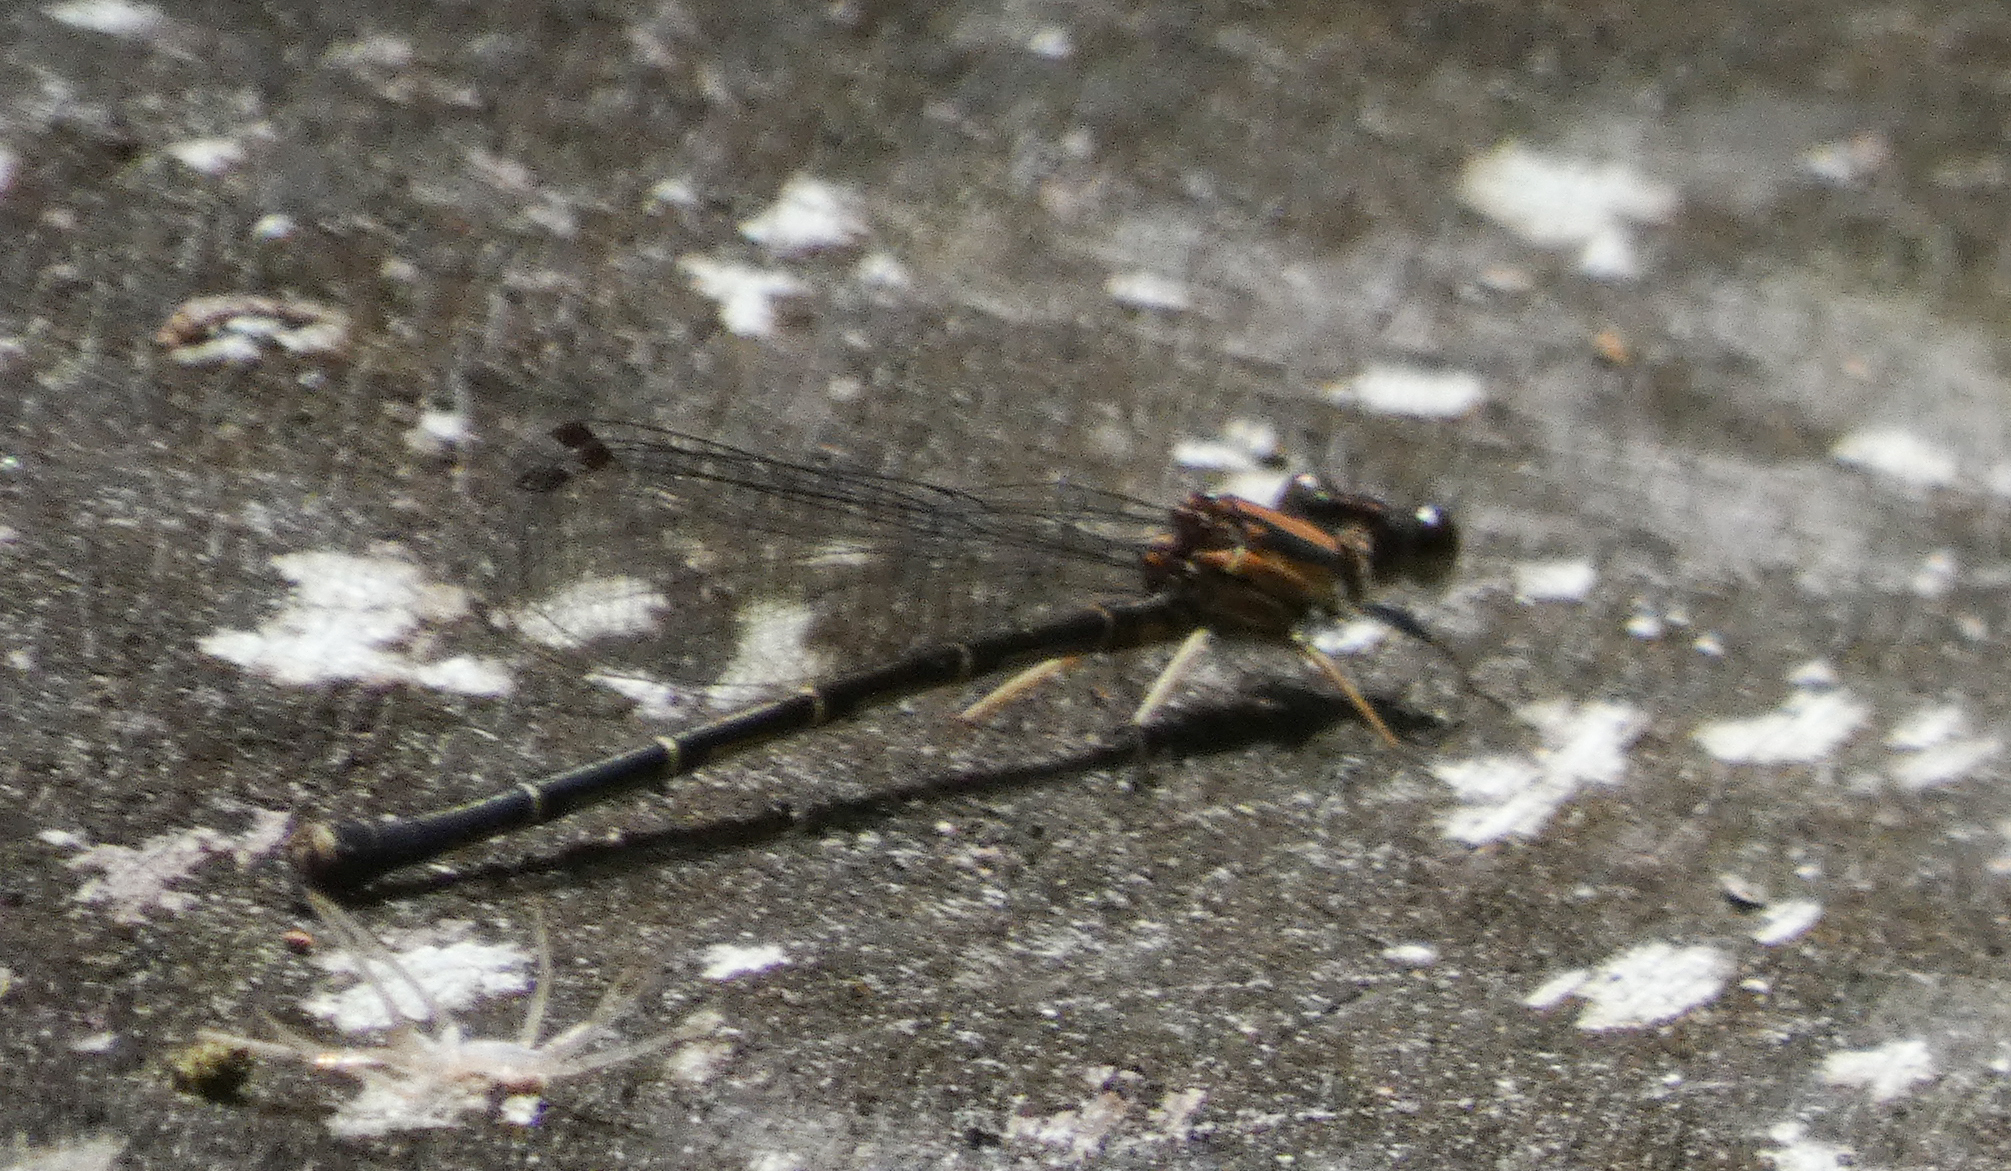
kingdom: Animalia
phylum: Arthropoda
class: Insecta
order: Odonata
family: Coenagrionidae
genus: Argia
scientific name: Argia tibialis
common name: Blue-tipped dancer
